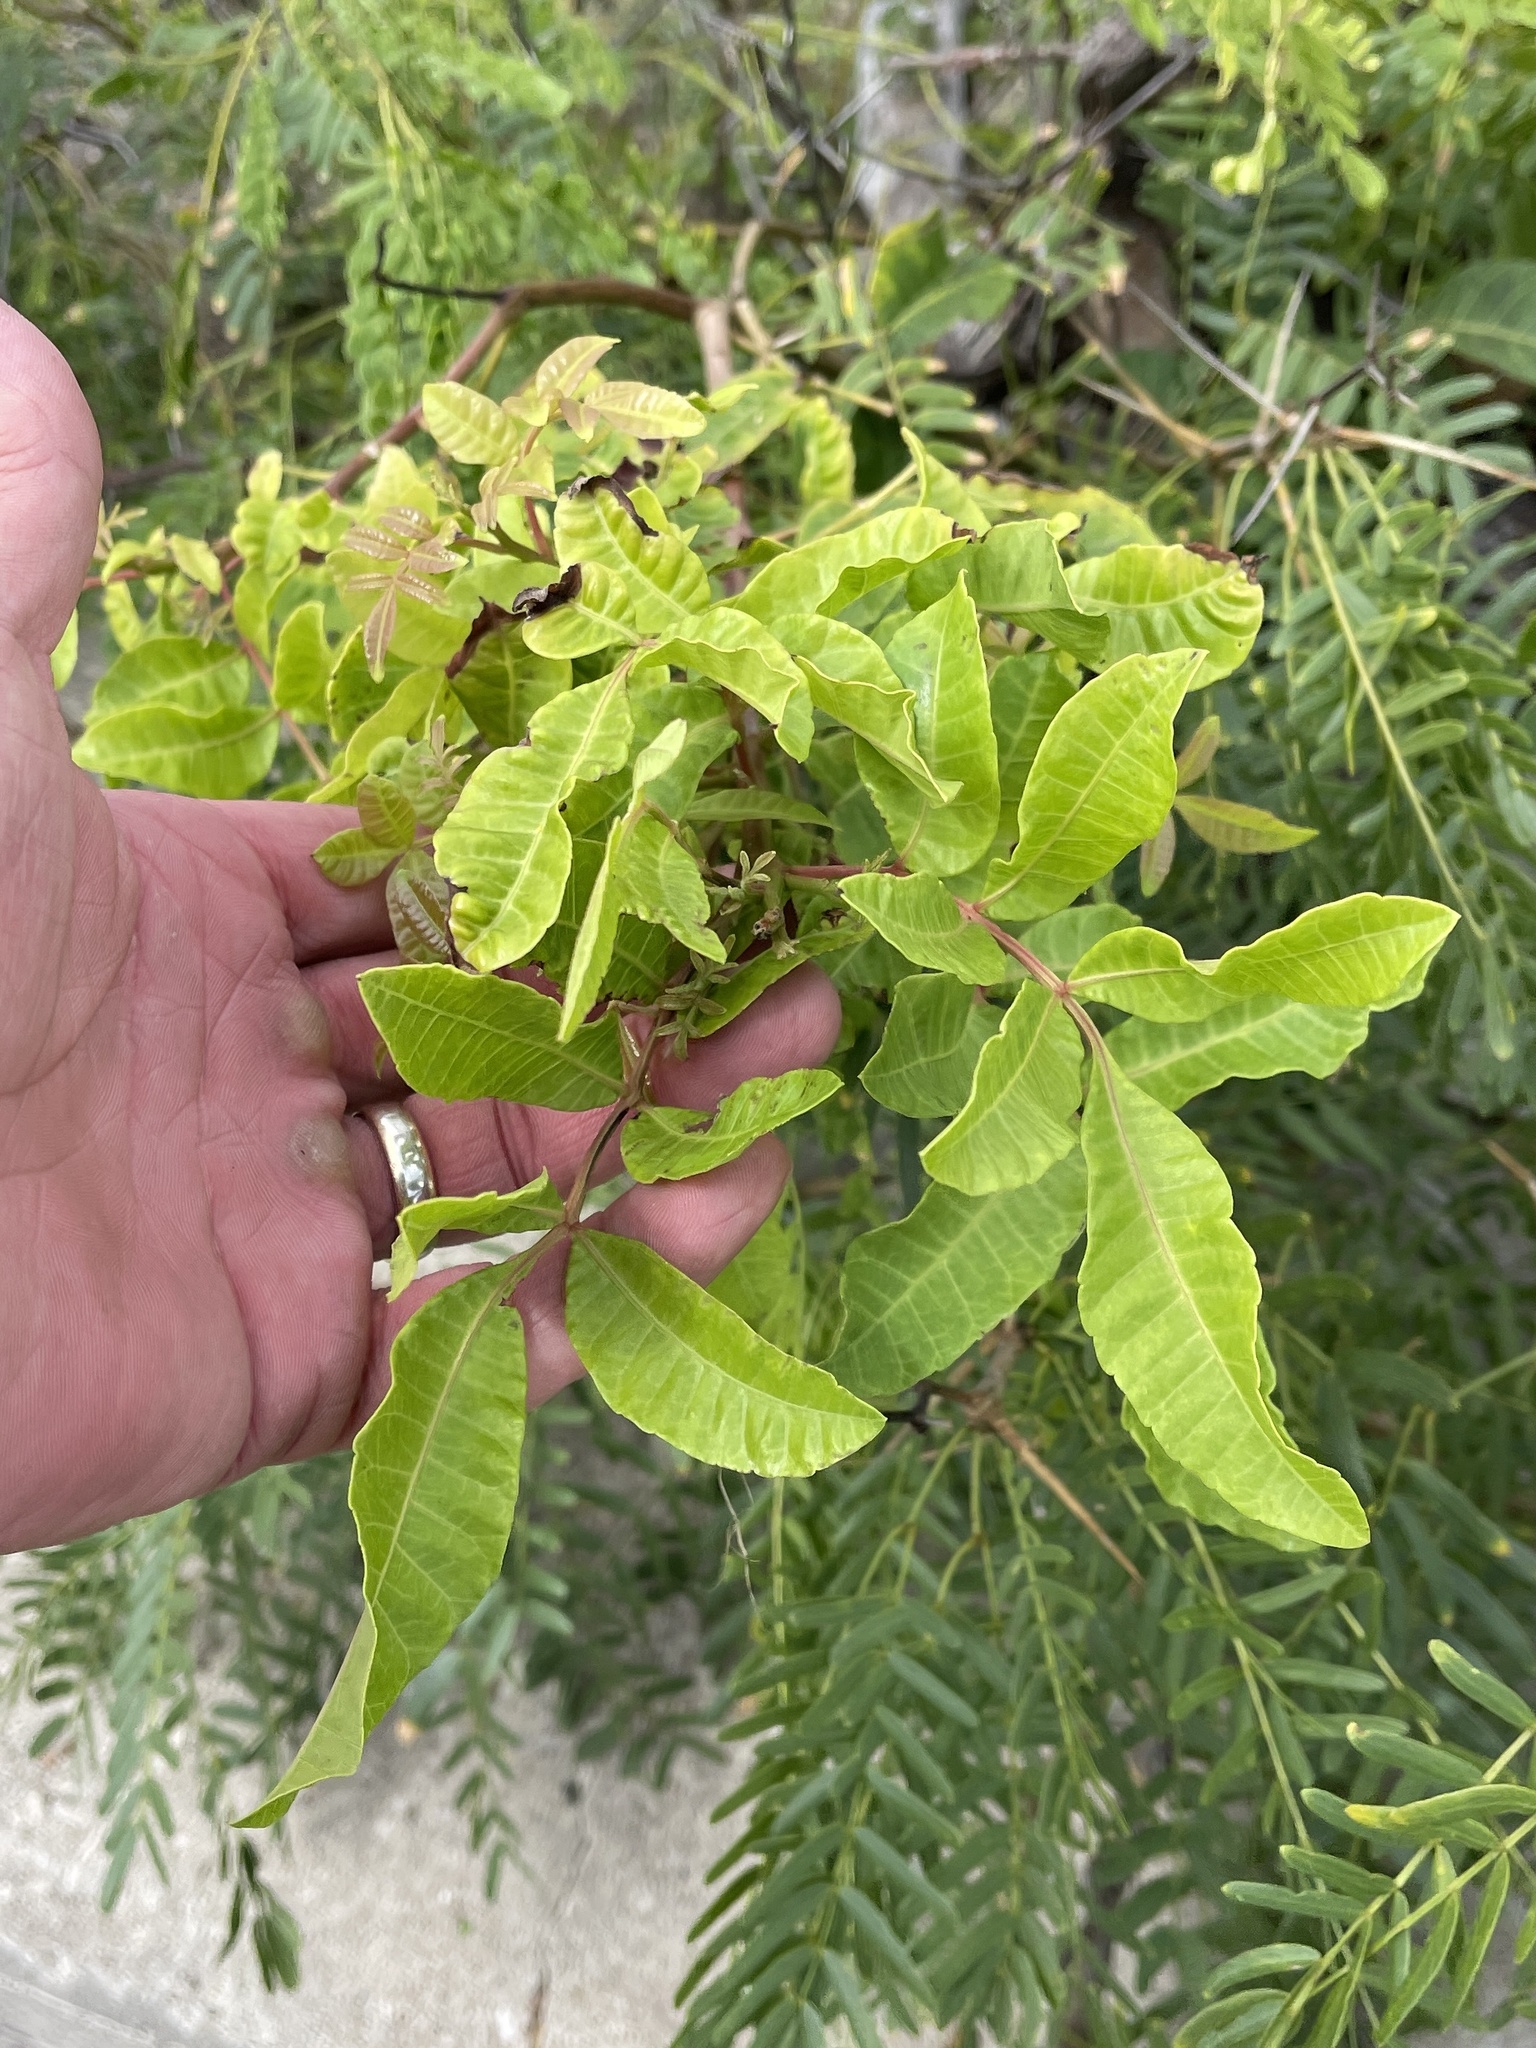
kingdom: Plantae
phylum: Tracheophyta
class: Magnoliopsida
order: Sapindales
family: Anacardiaceae
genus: Schinus
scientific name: Schinus terebinthifolia
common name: Brazilian peppertree
